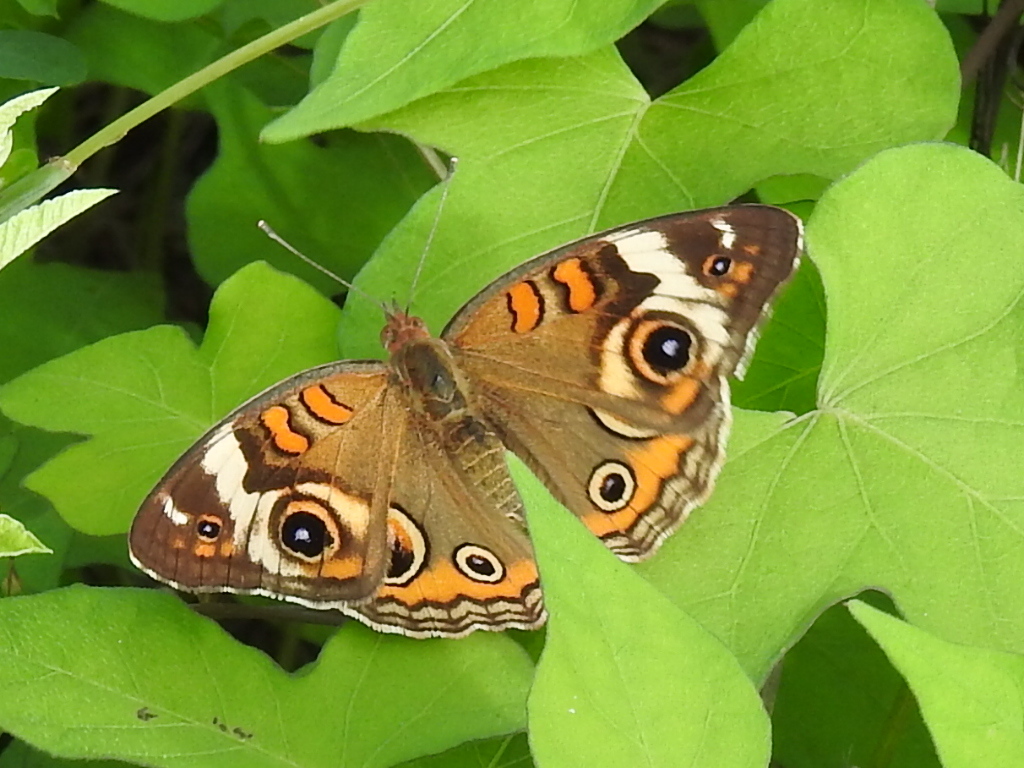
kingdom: Animalia
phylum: Arthropoda
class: Insecta
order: Lepidoptera
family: Nymphalidae
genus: Junonia
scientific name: Junonia coenia
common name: Common buckeye
